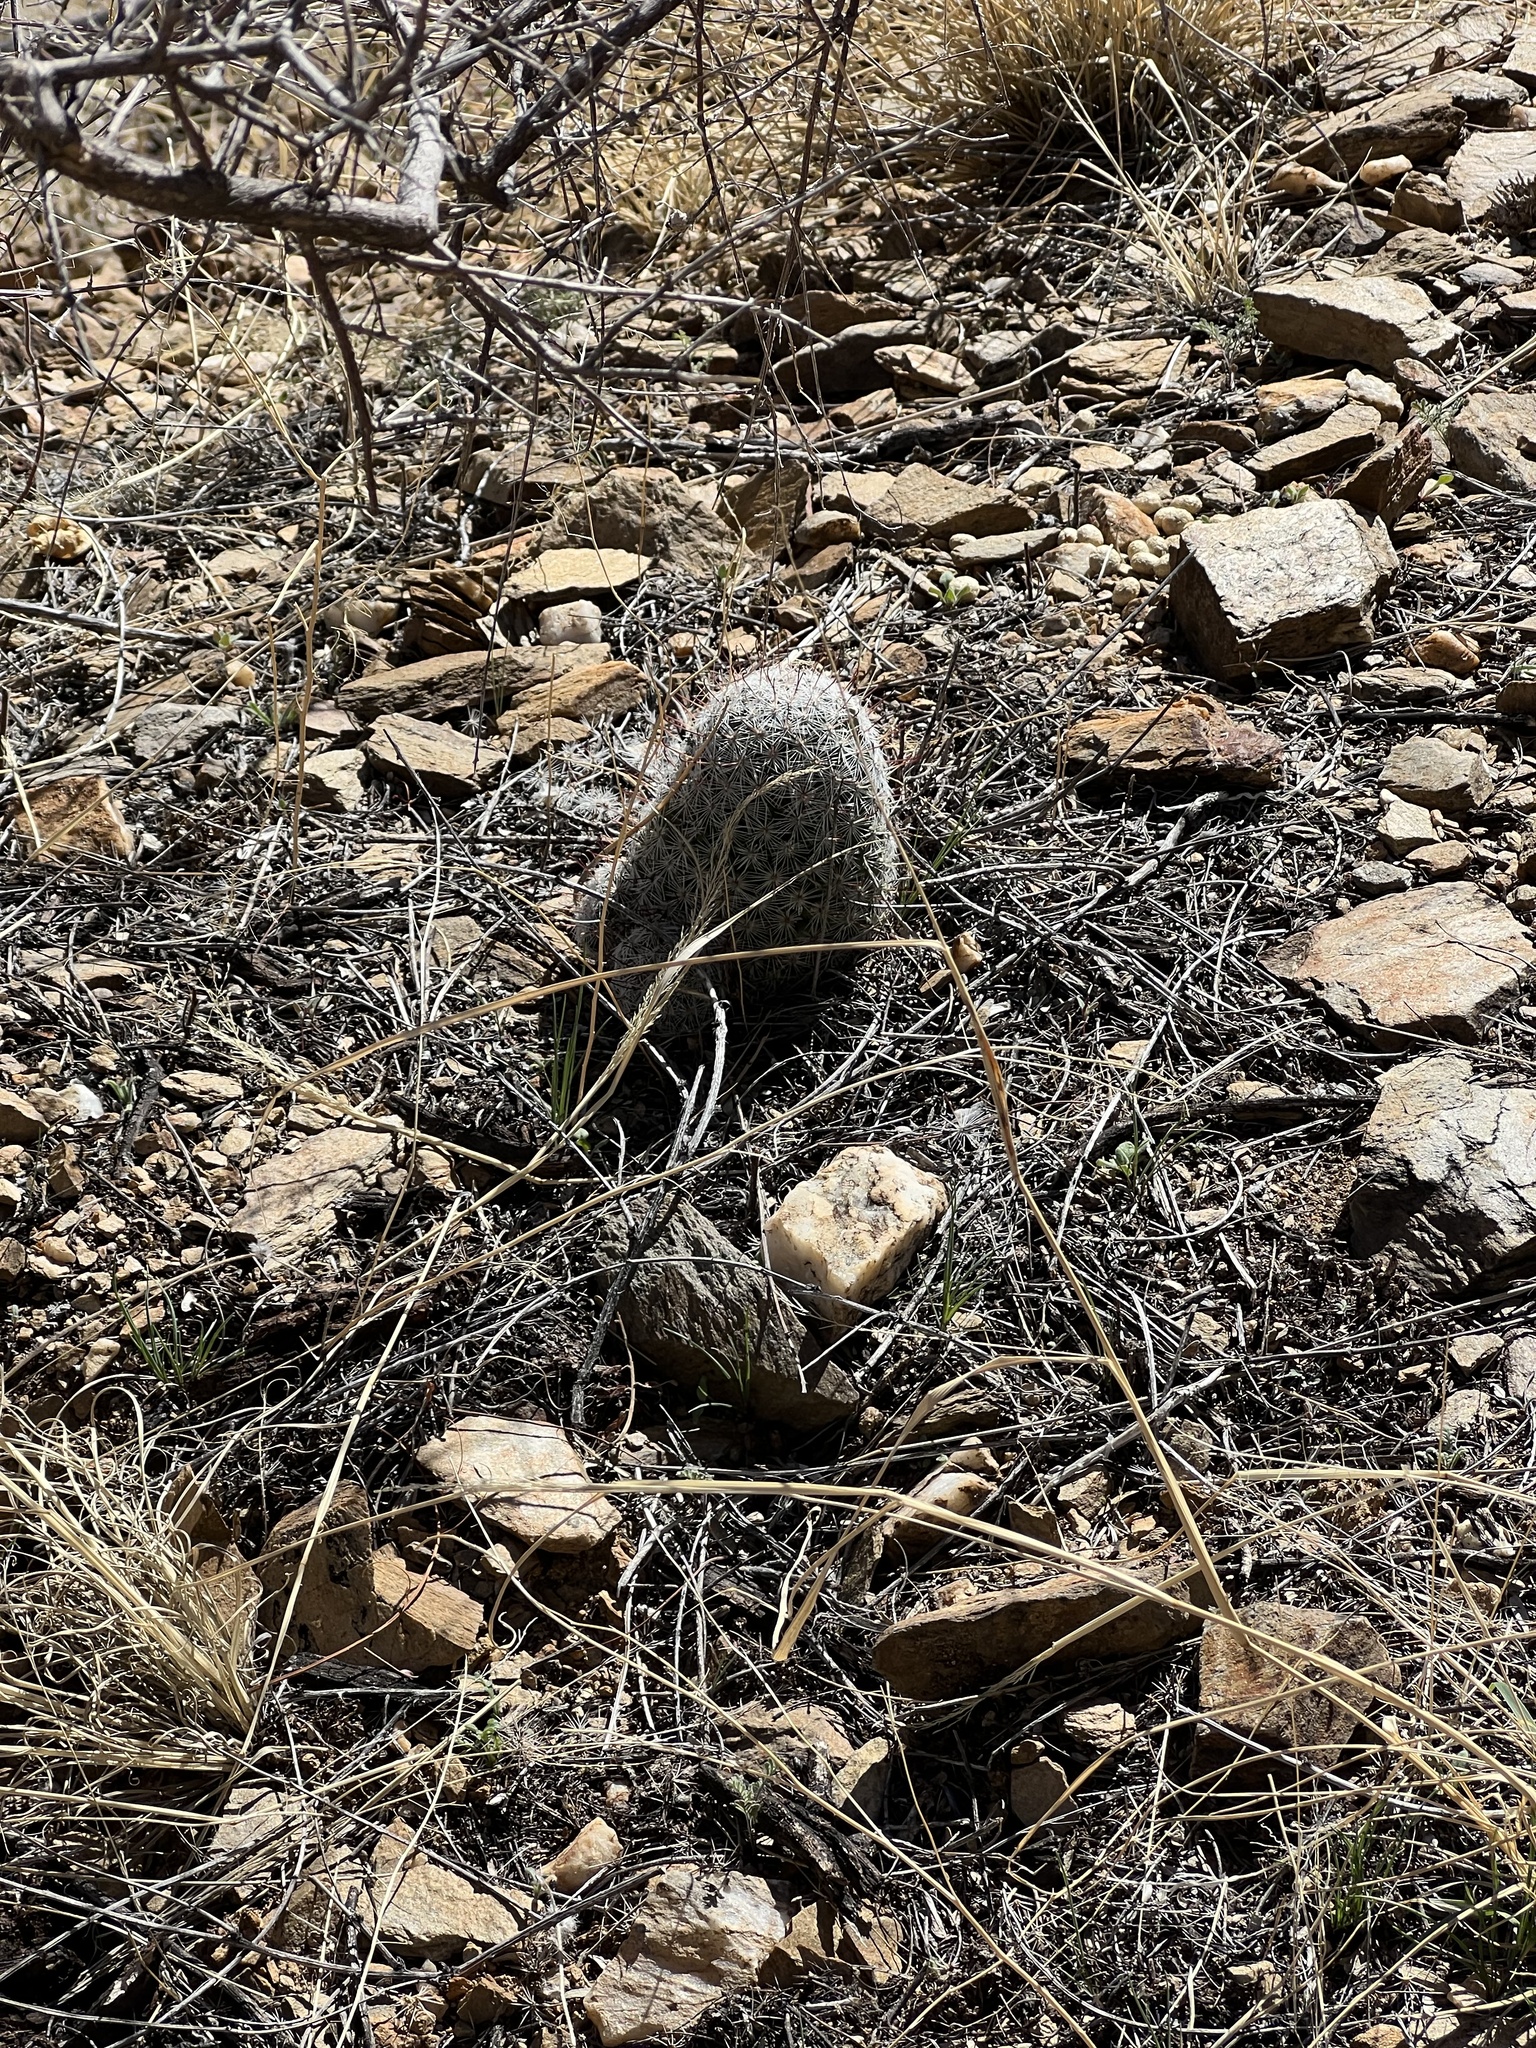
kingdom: Plantae
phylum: Tracheophyta
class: Magnoliopsida
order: Caryophyllales
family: Cactaceae
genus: Cochemiea
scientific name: Cochemiea grahamii
